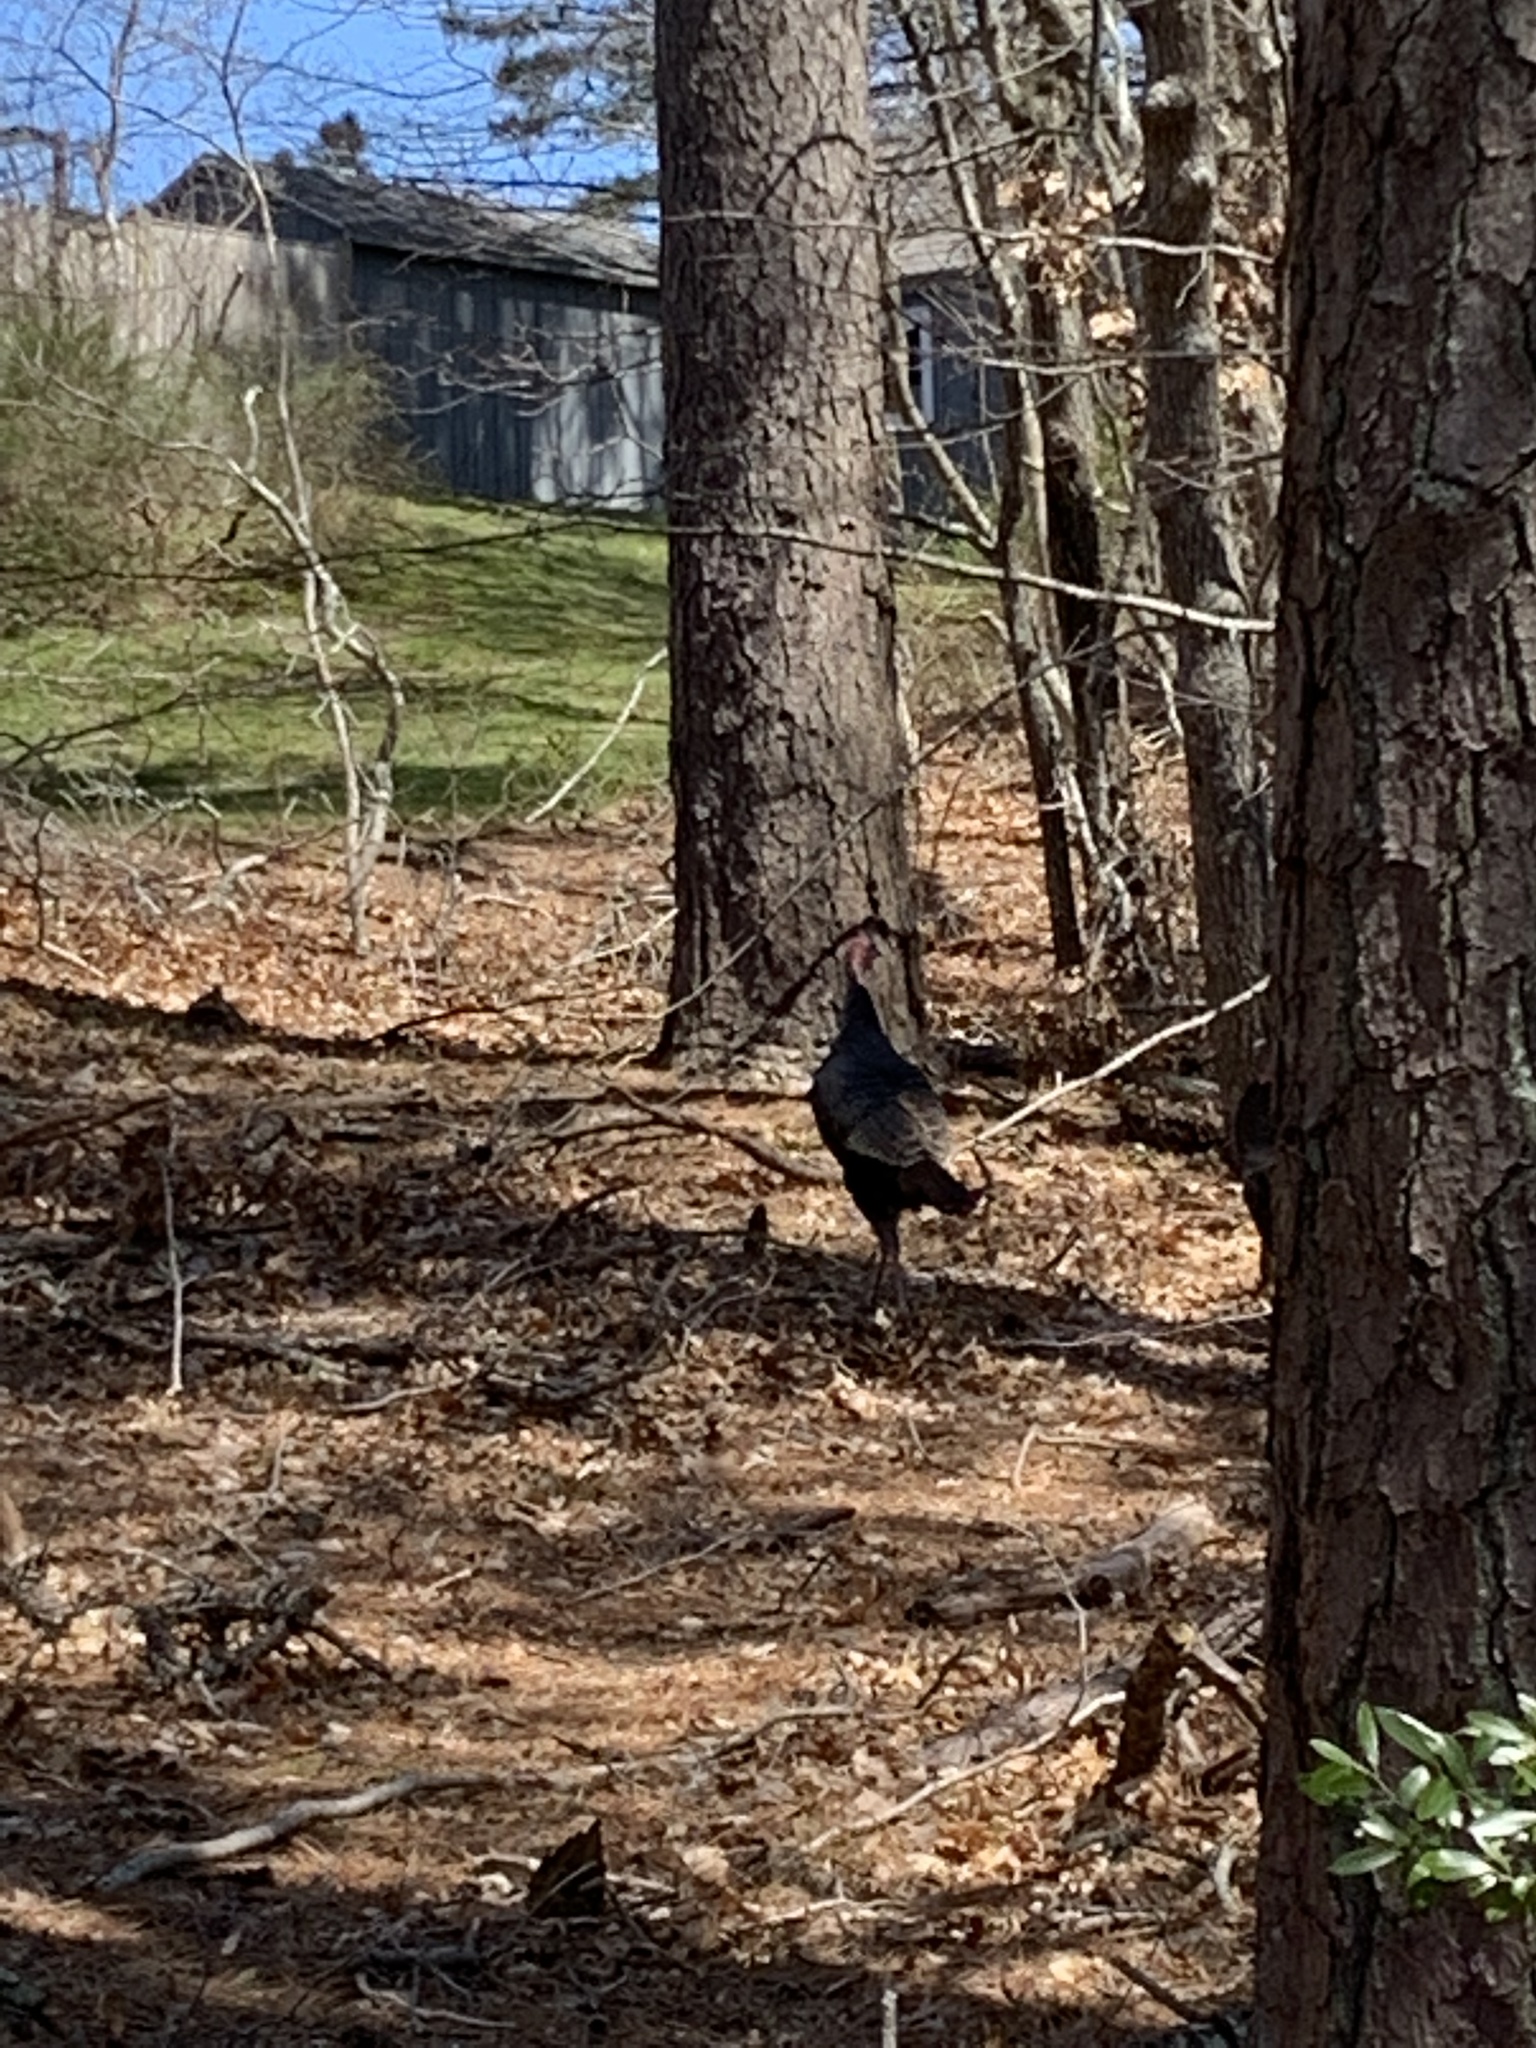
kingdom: Animalia
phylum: Chordata
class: Aves
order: Galliformes
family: Phasianidae
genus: Meleagris
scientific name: Meleagris gallopavo
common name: Wild turkey
